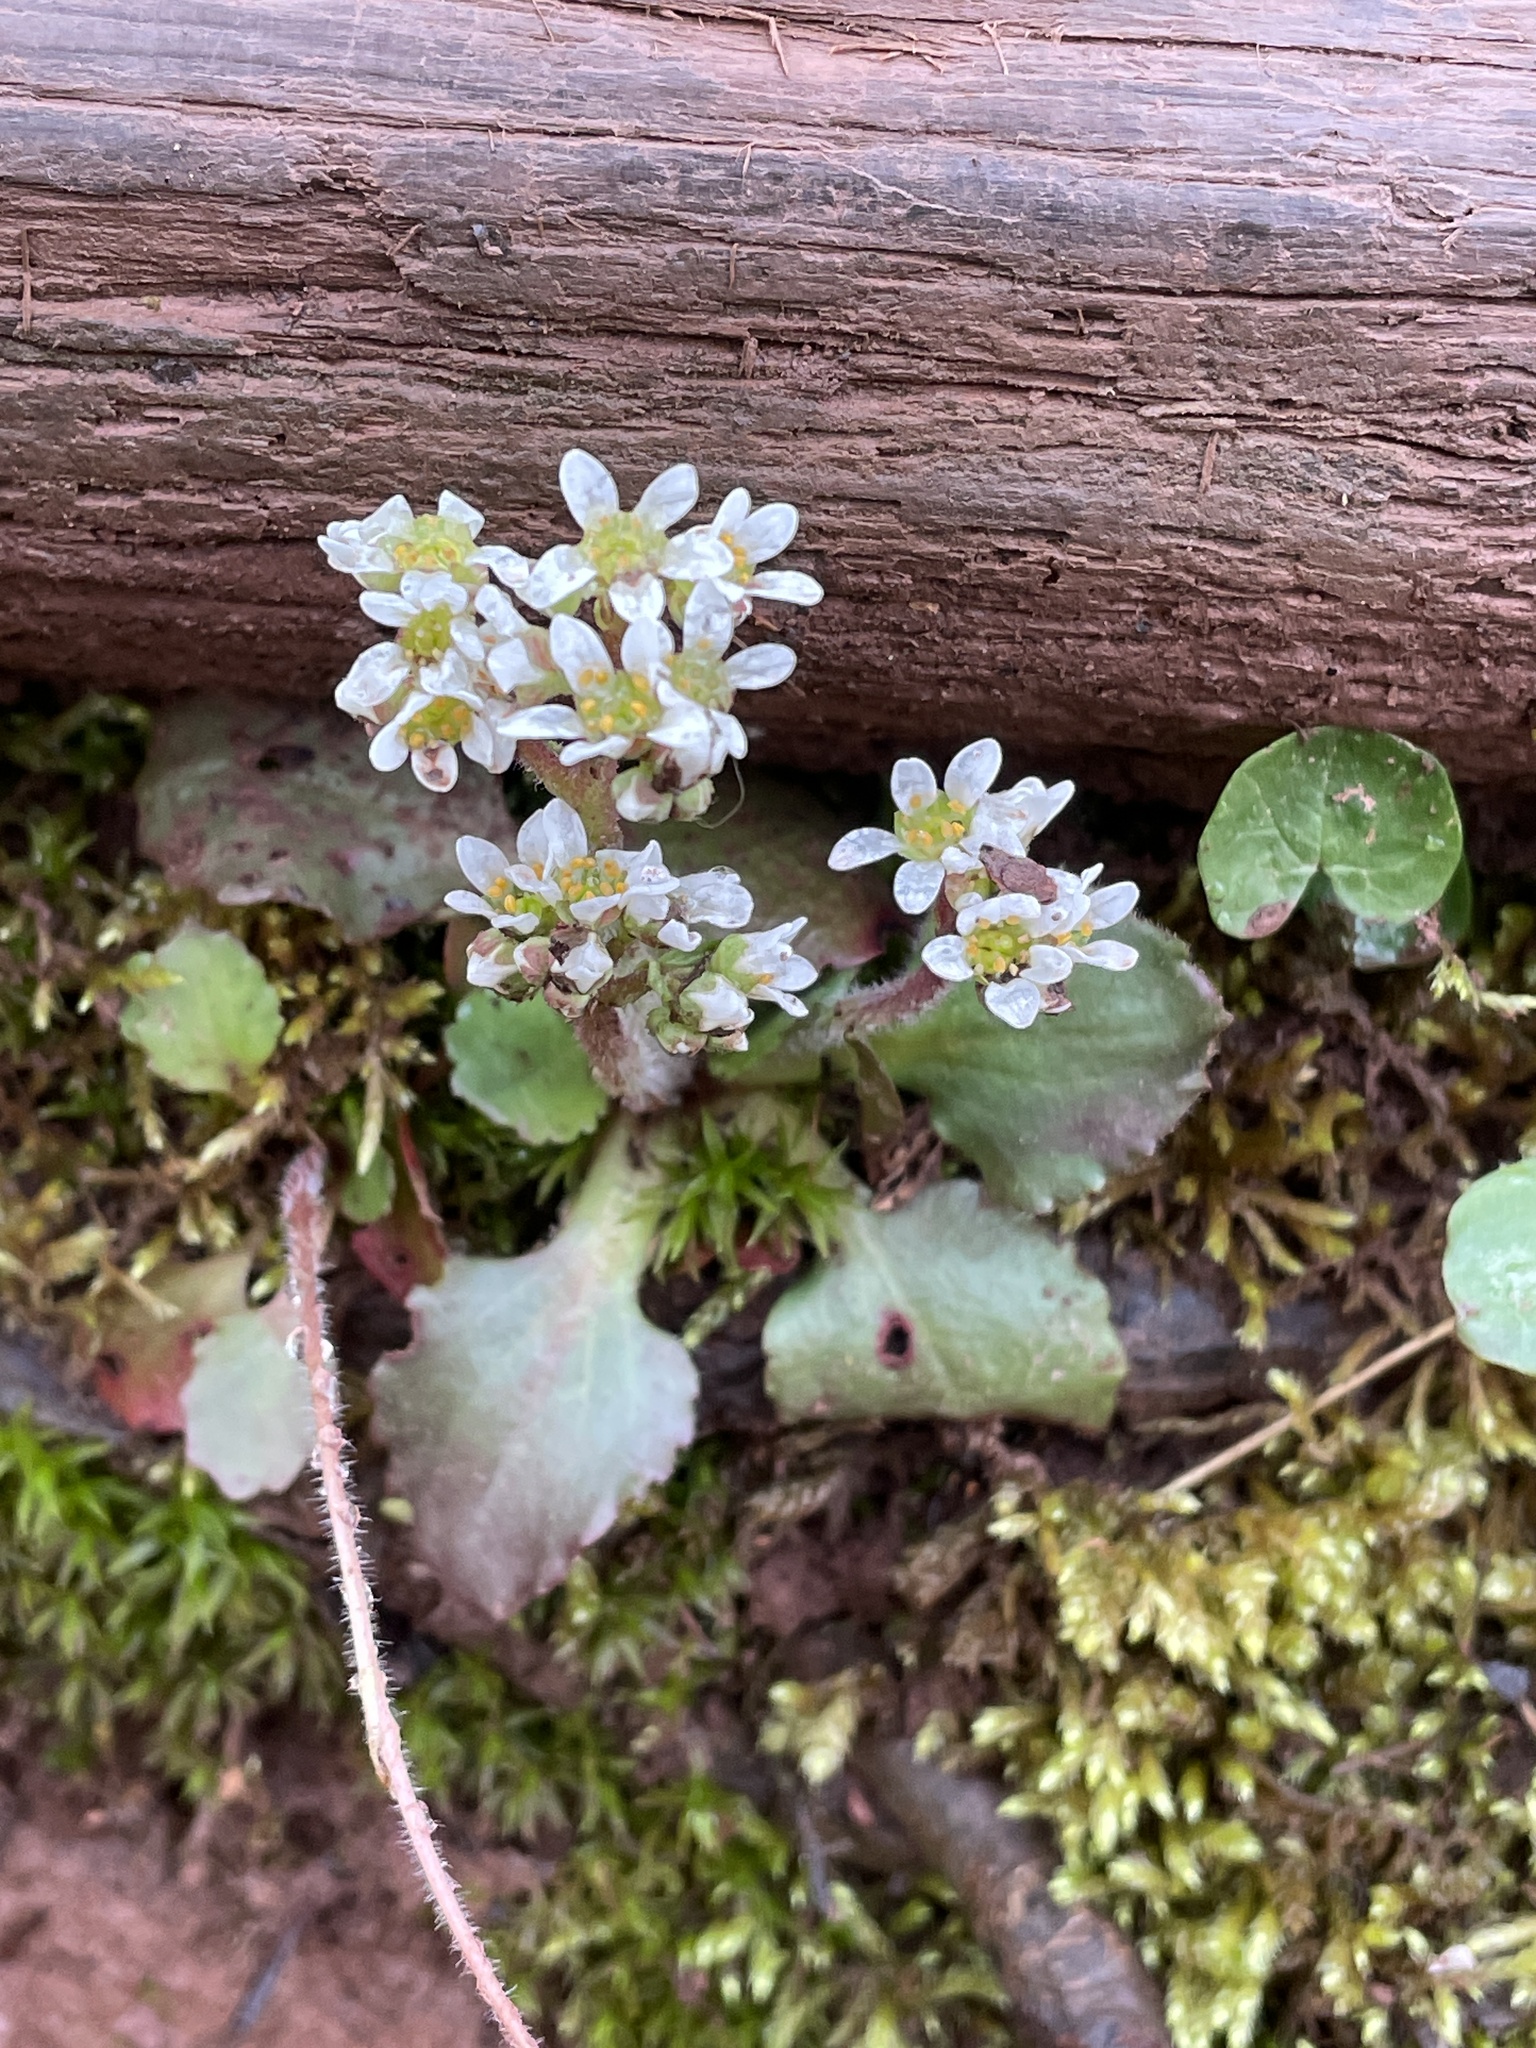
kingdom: Plantae
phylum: Tracheophyta
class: Magnoliopsida
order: Saxifragales
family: Saxifragaceae
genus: Micranthes
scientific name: Micranthes virginiensis
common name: Early saxifrage
